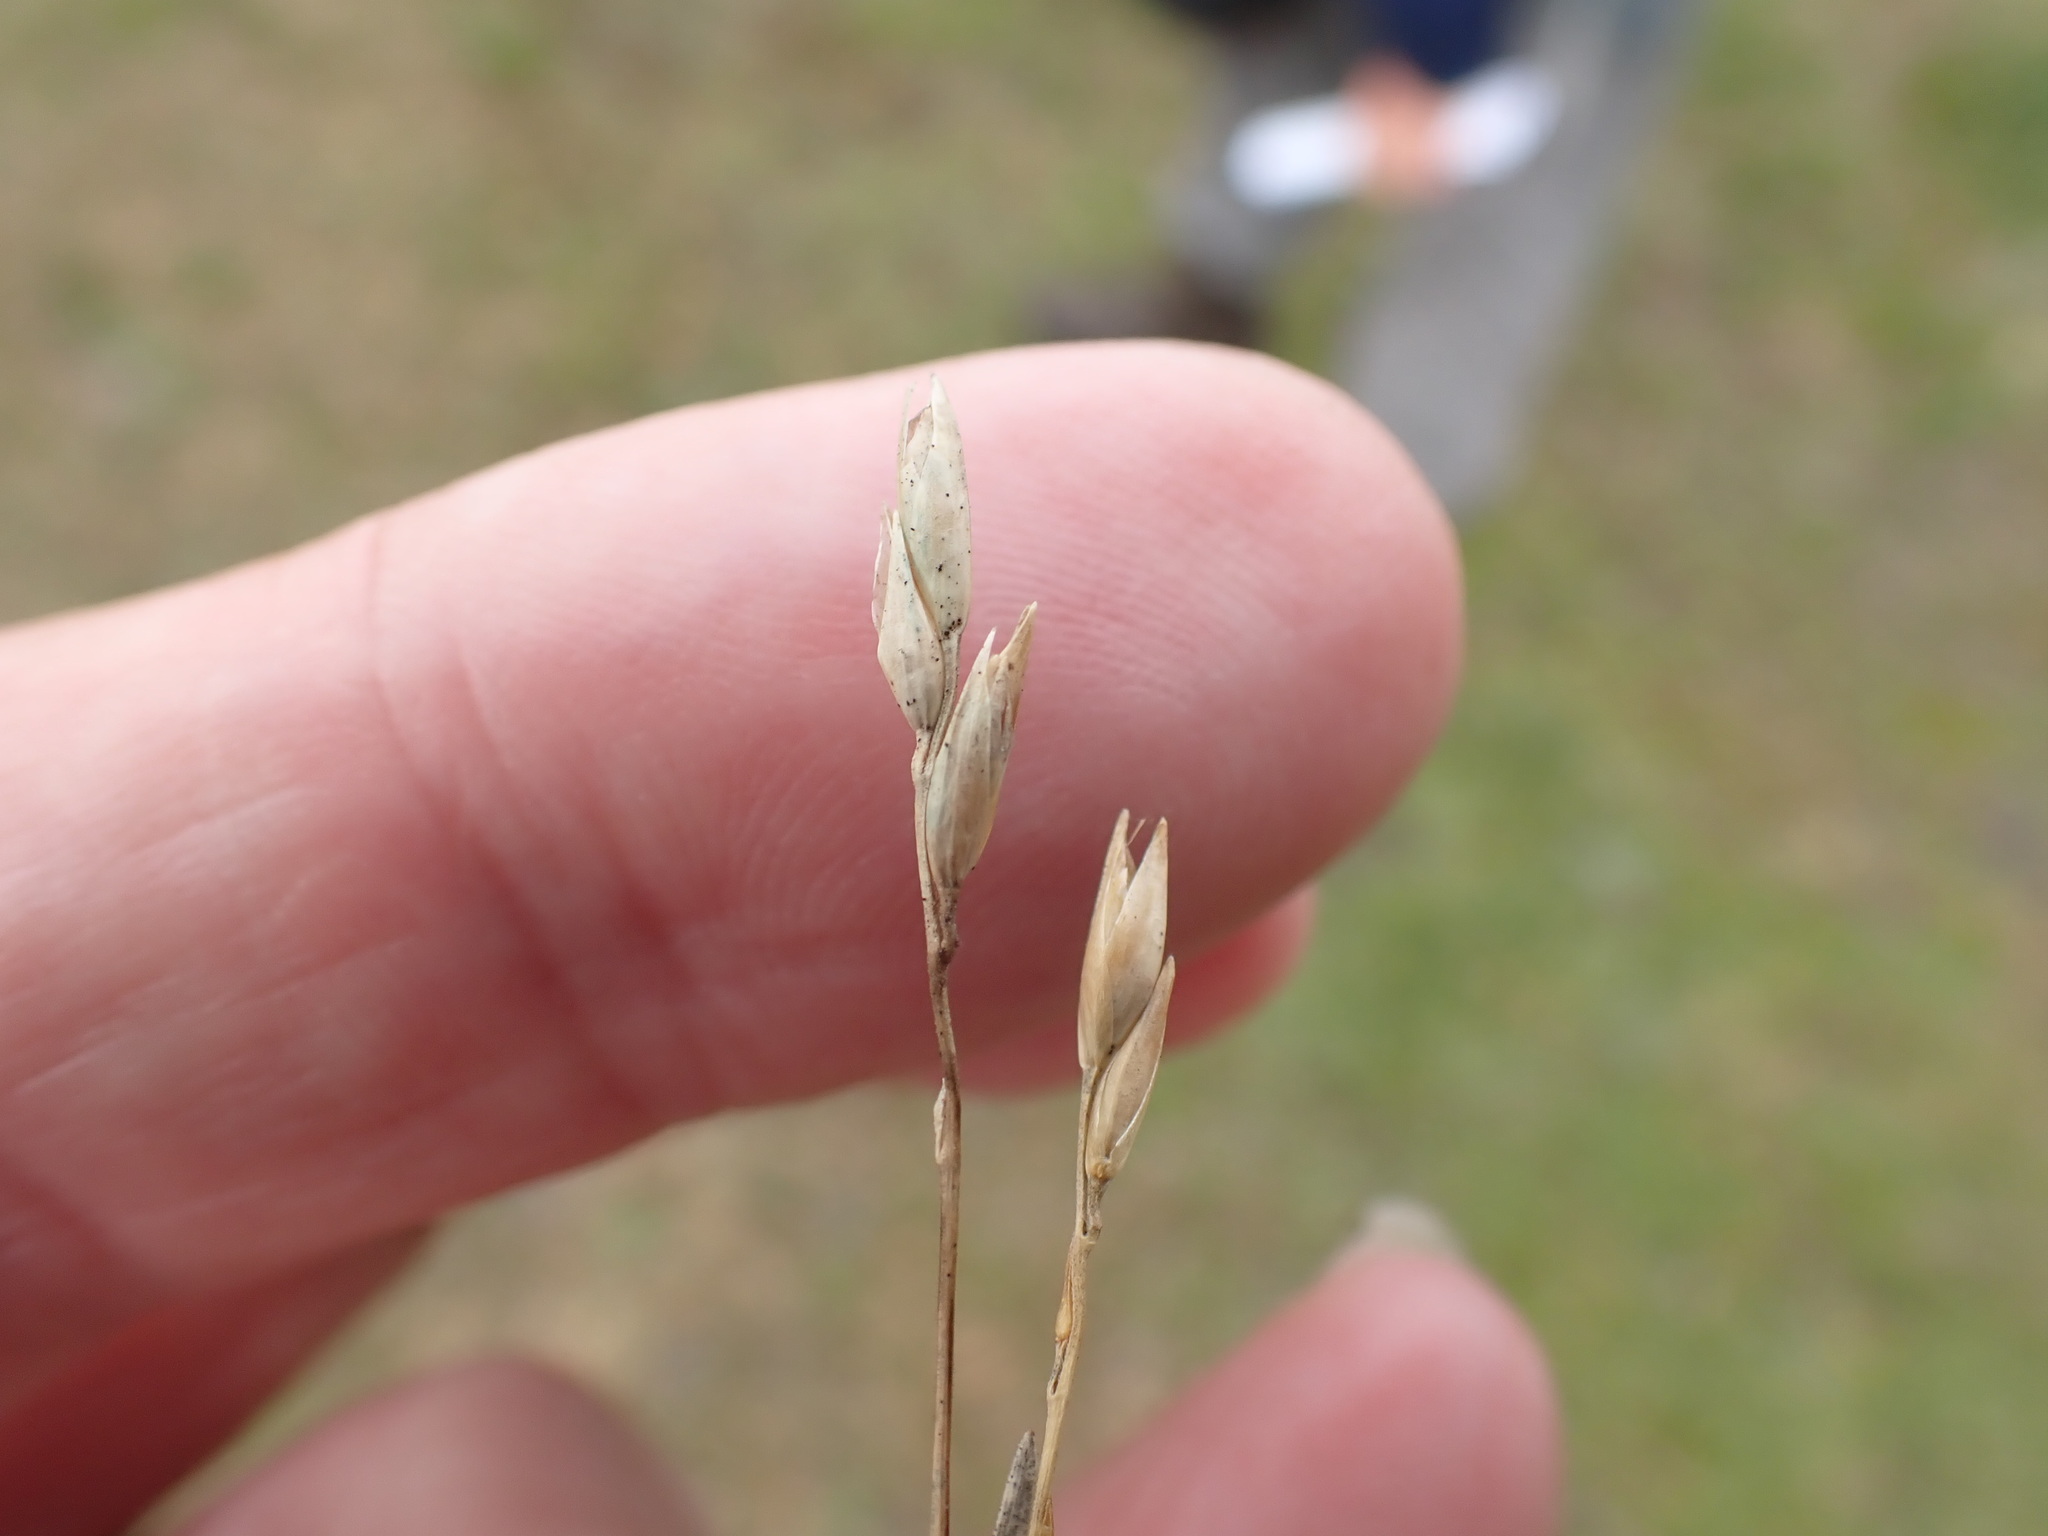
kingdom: Plantae
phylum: Tracheophyta
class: Liliopsida
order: Poales
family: Poaceae
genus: Danthonia
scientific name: Danthonia decumbens
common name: Common heathgrass
